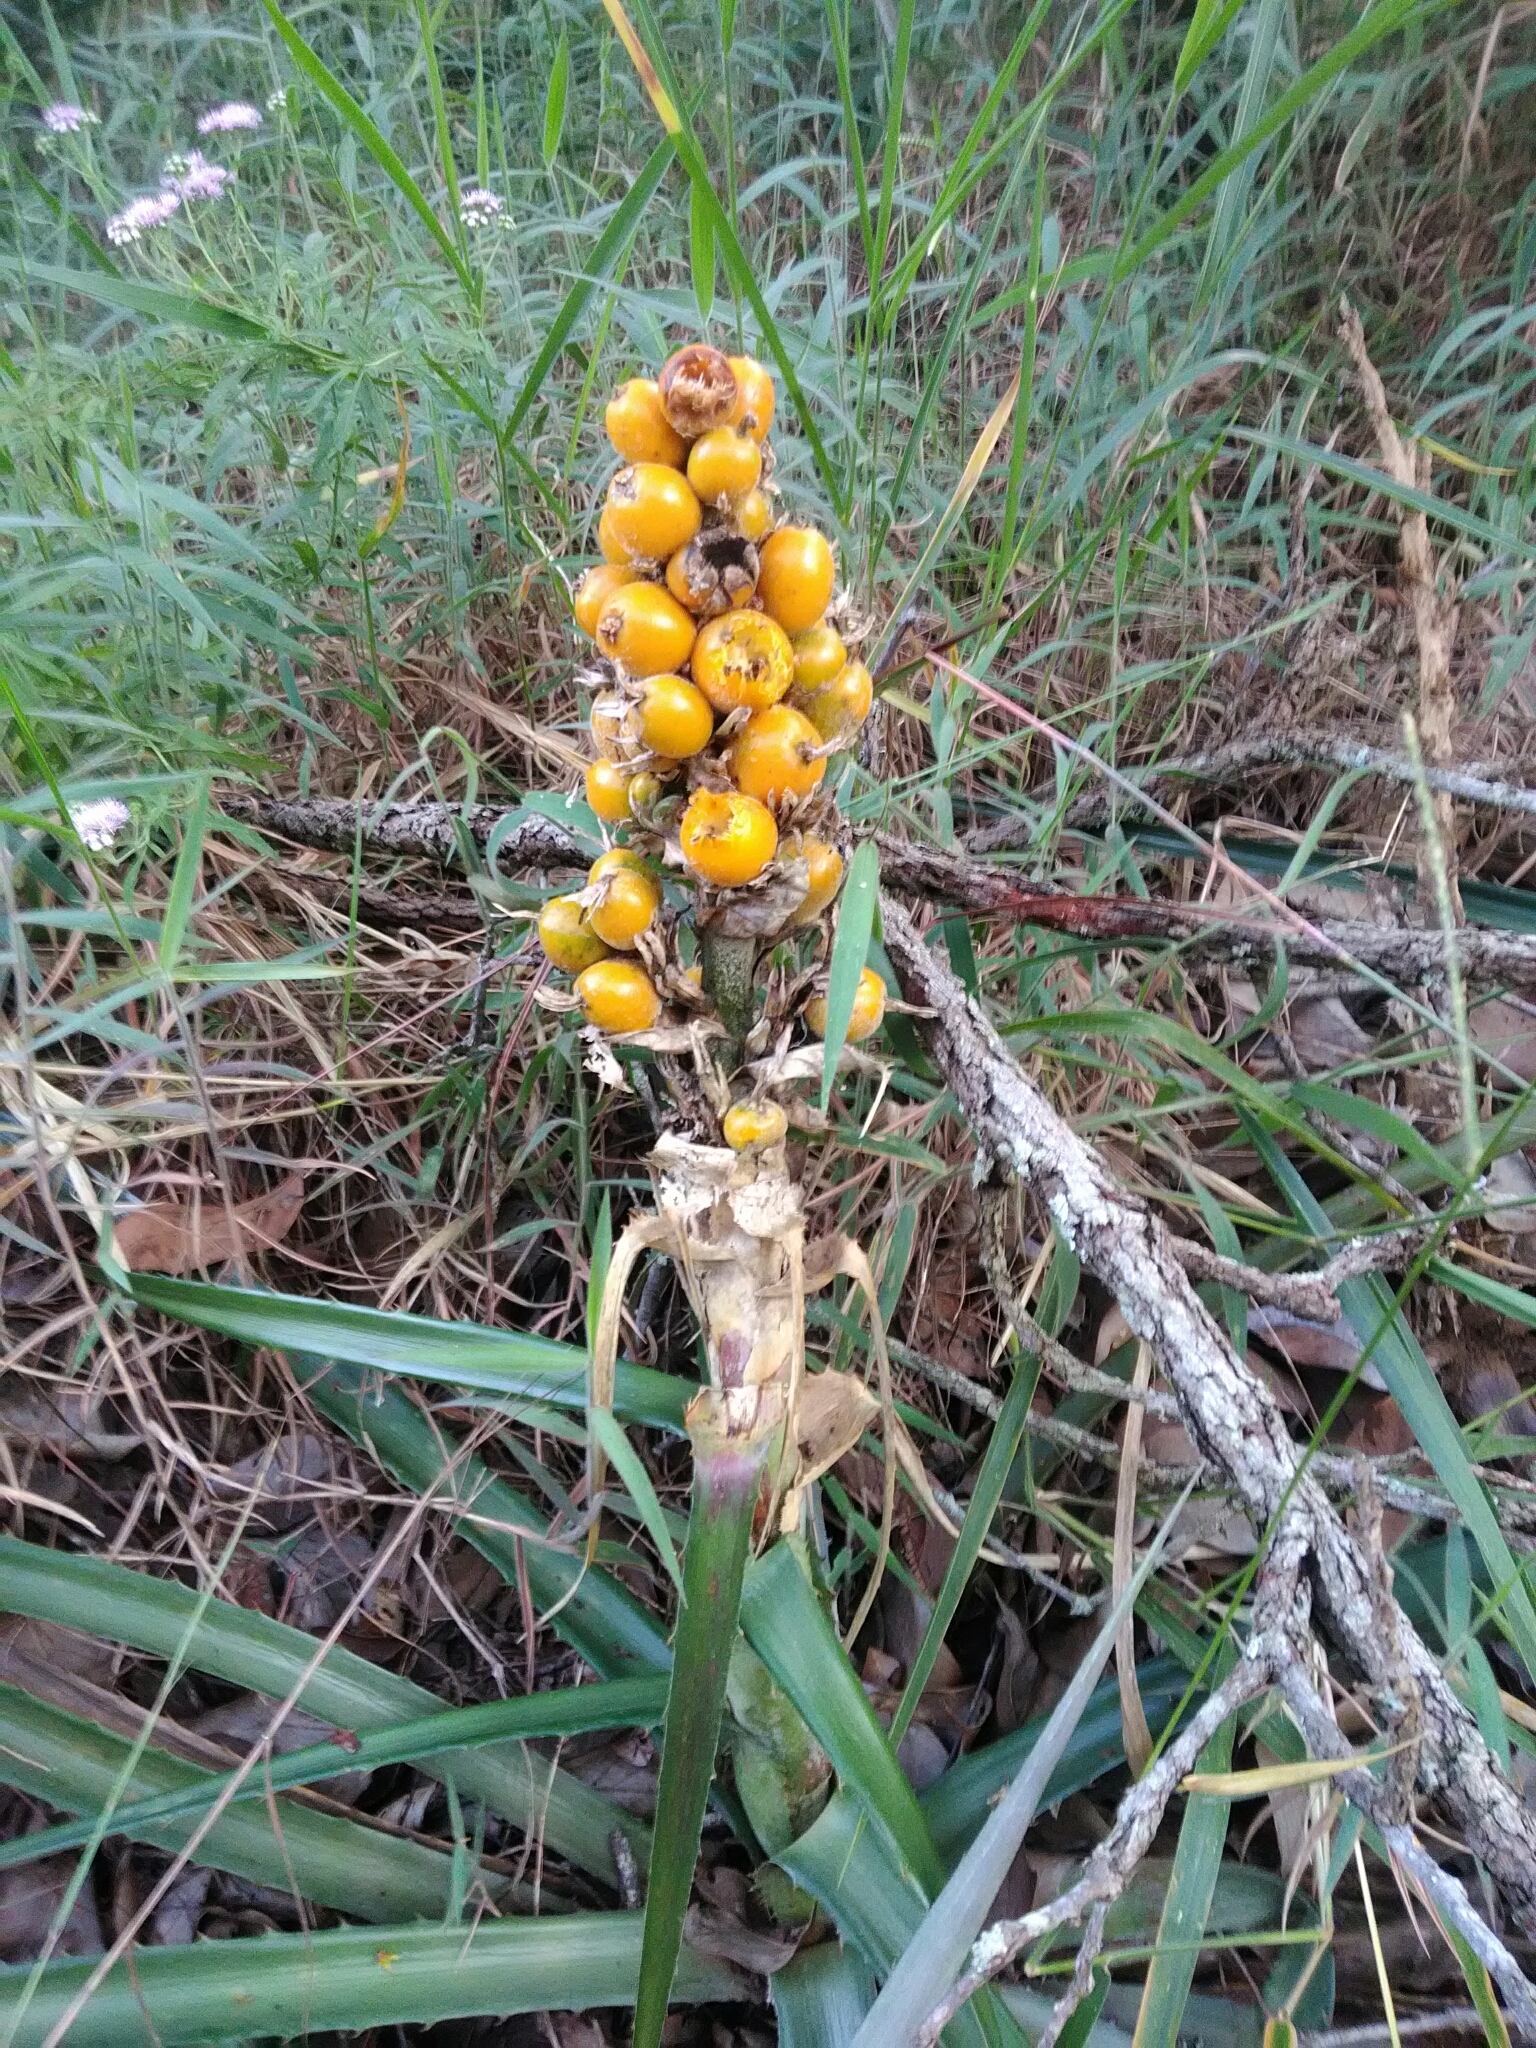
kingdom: Plantae
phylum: Tracheophyta
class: Liliopsida
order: Poales
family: Bromeliaceae
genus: Bromelia
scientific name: Bromelia balansae
